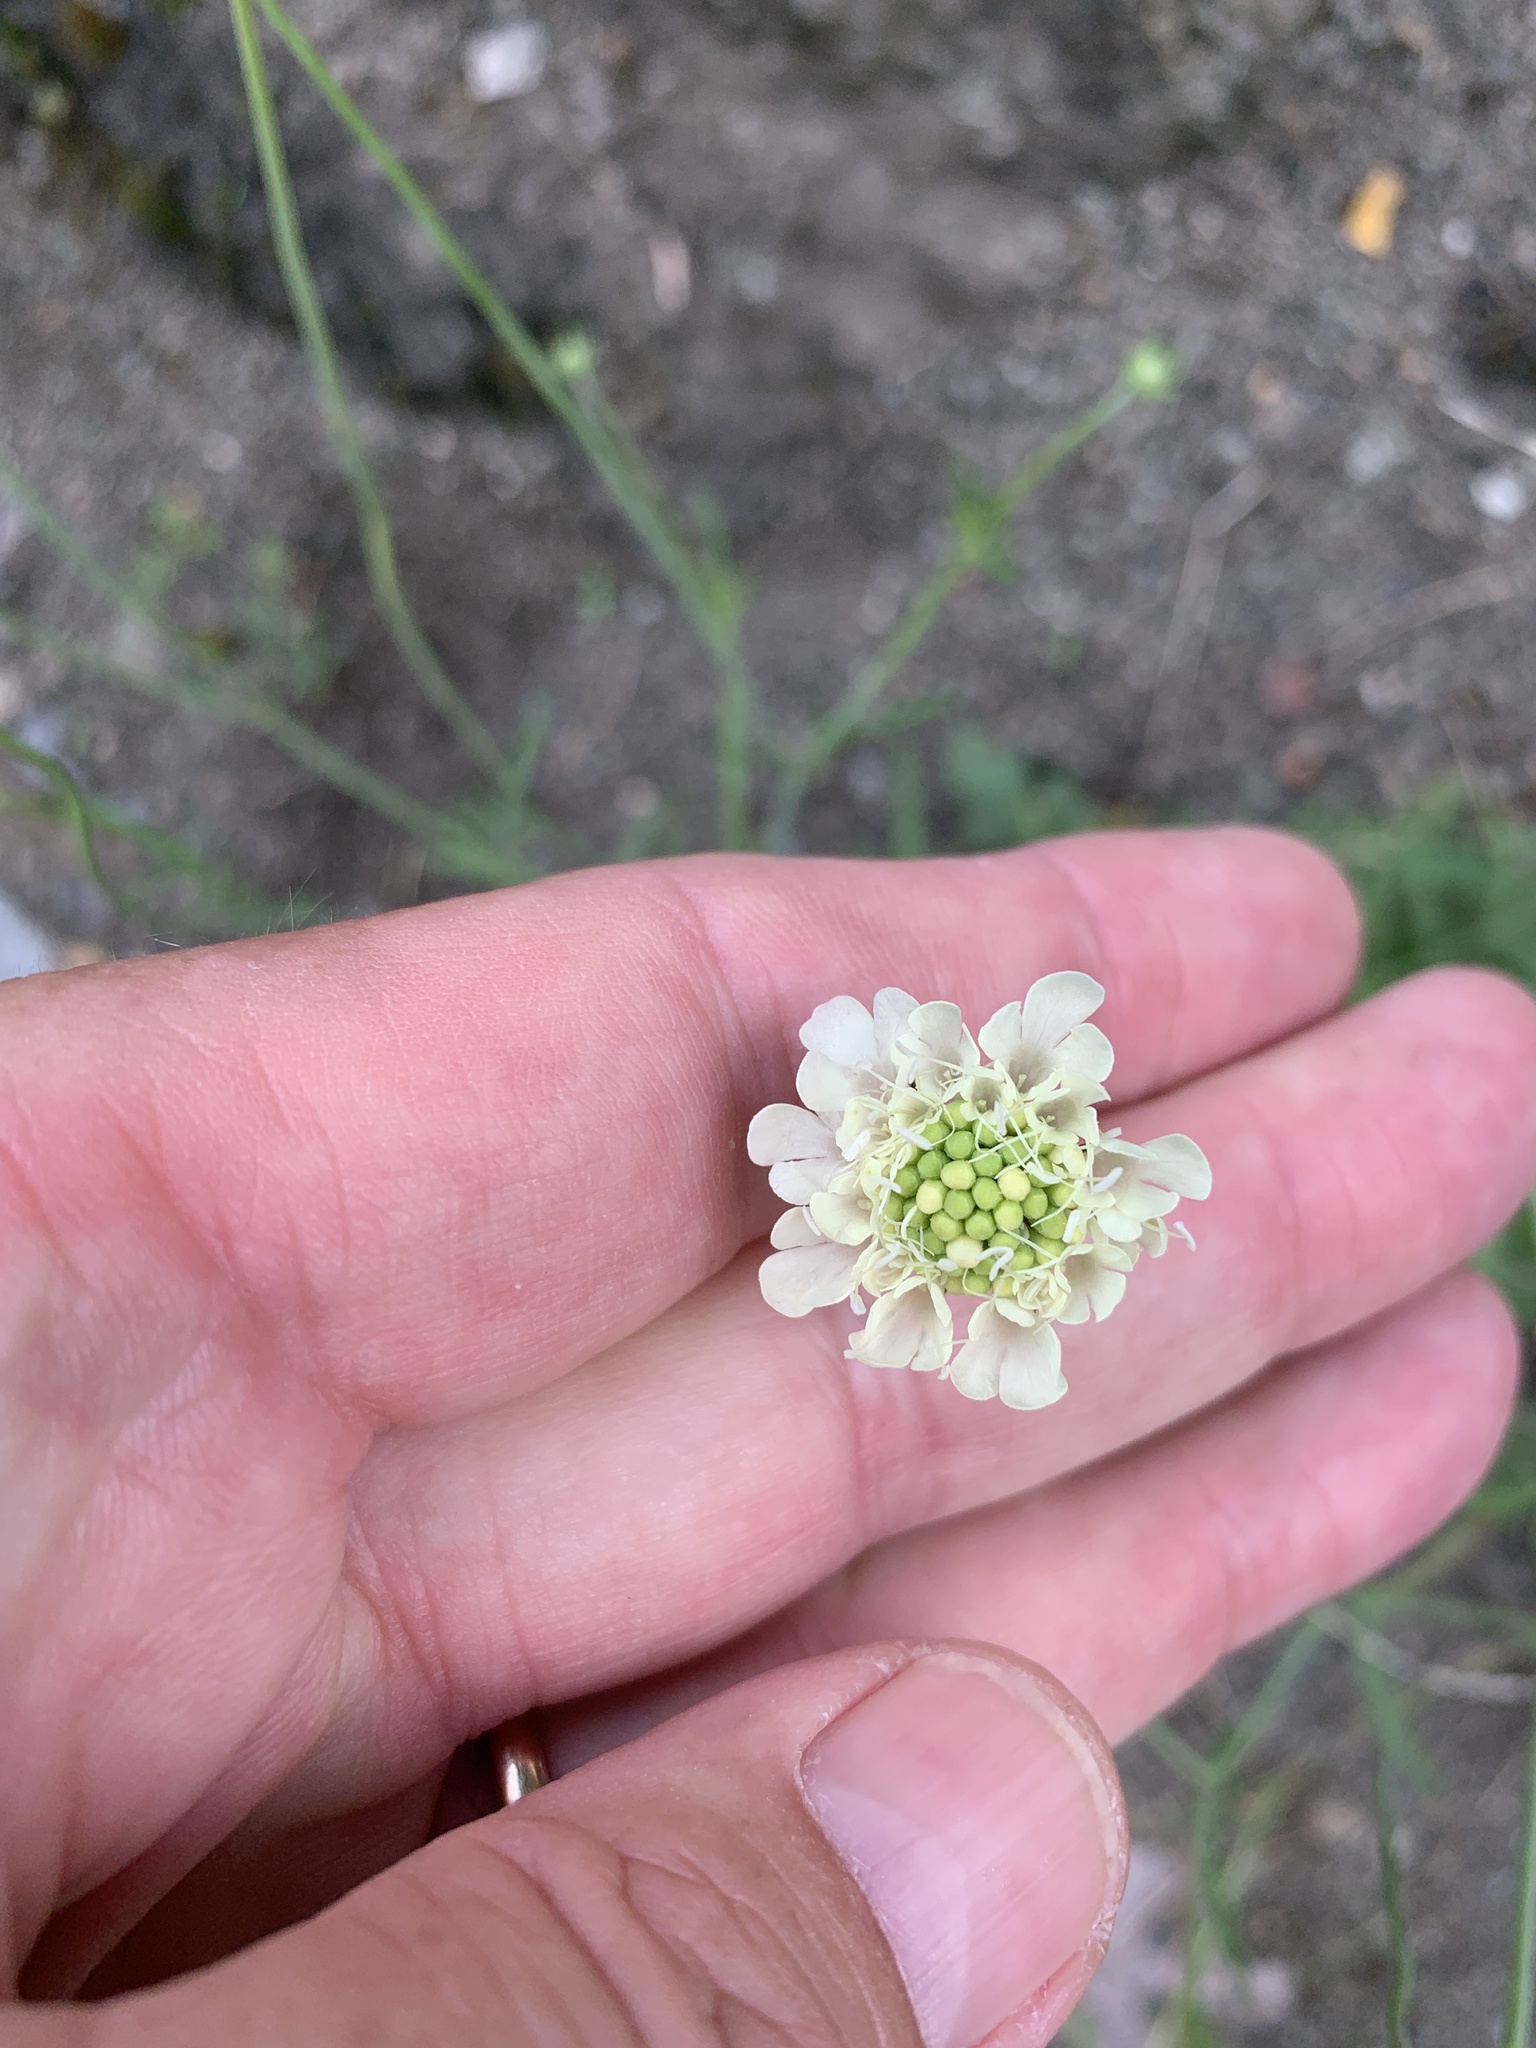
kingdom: Plantae
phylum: Tracheophyta
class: Magnoliopsida
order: Dipsacales
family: Caprifoliaceae
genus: Scabiosa
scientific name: Scabiosa ochroleuca
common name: Cream pincushions
